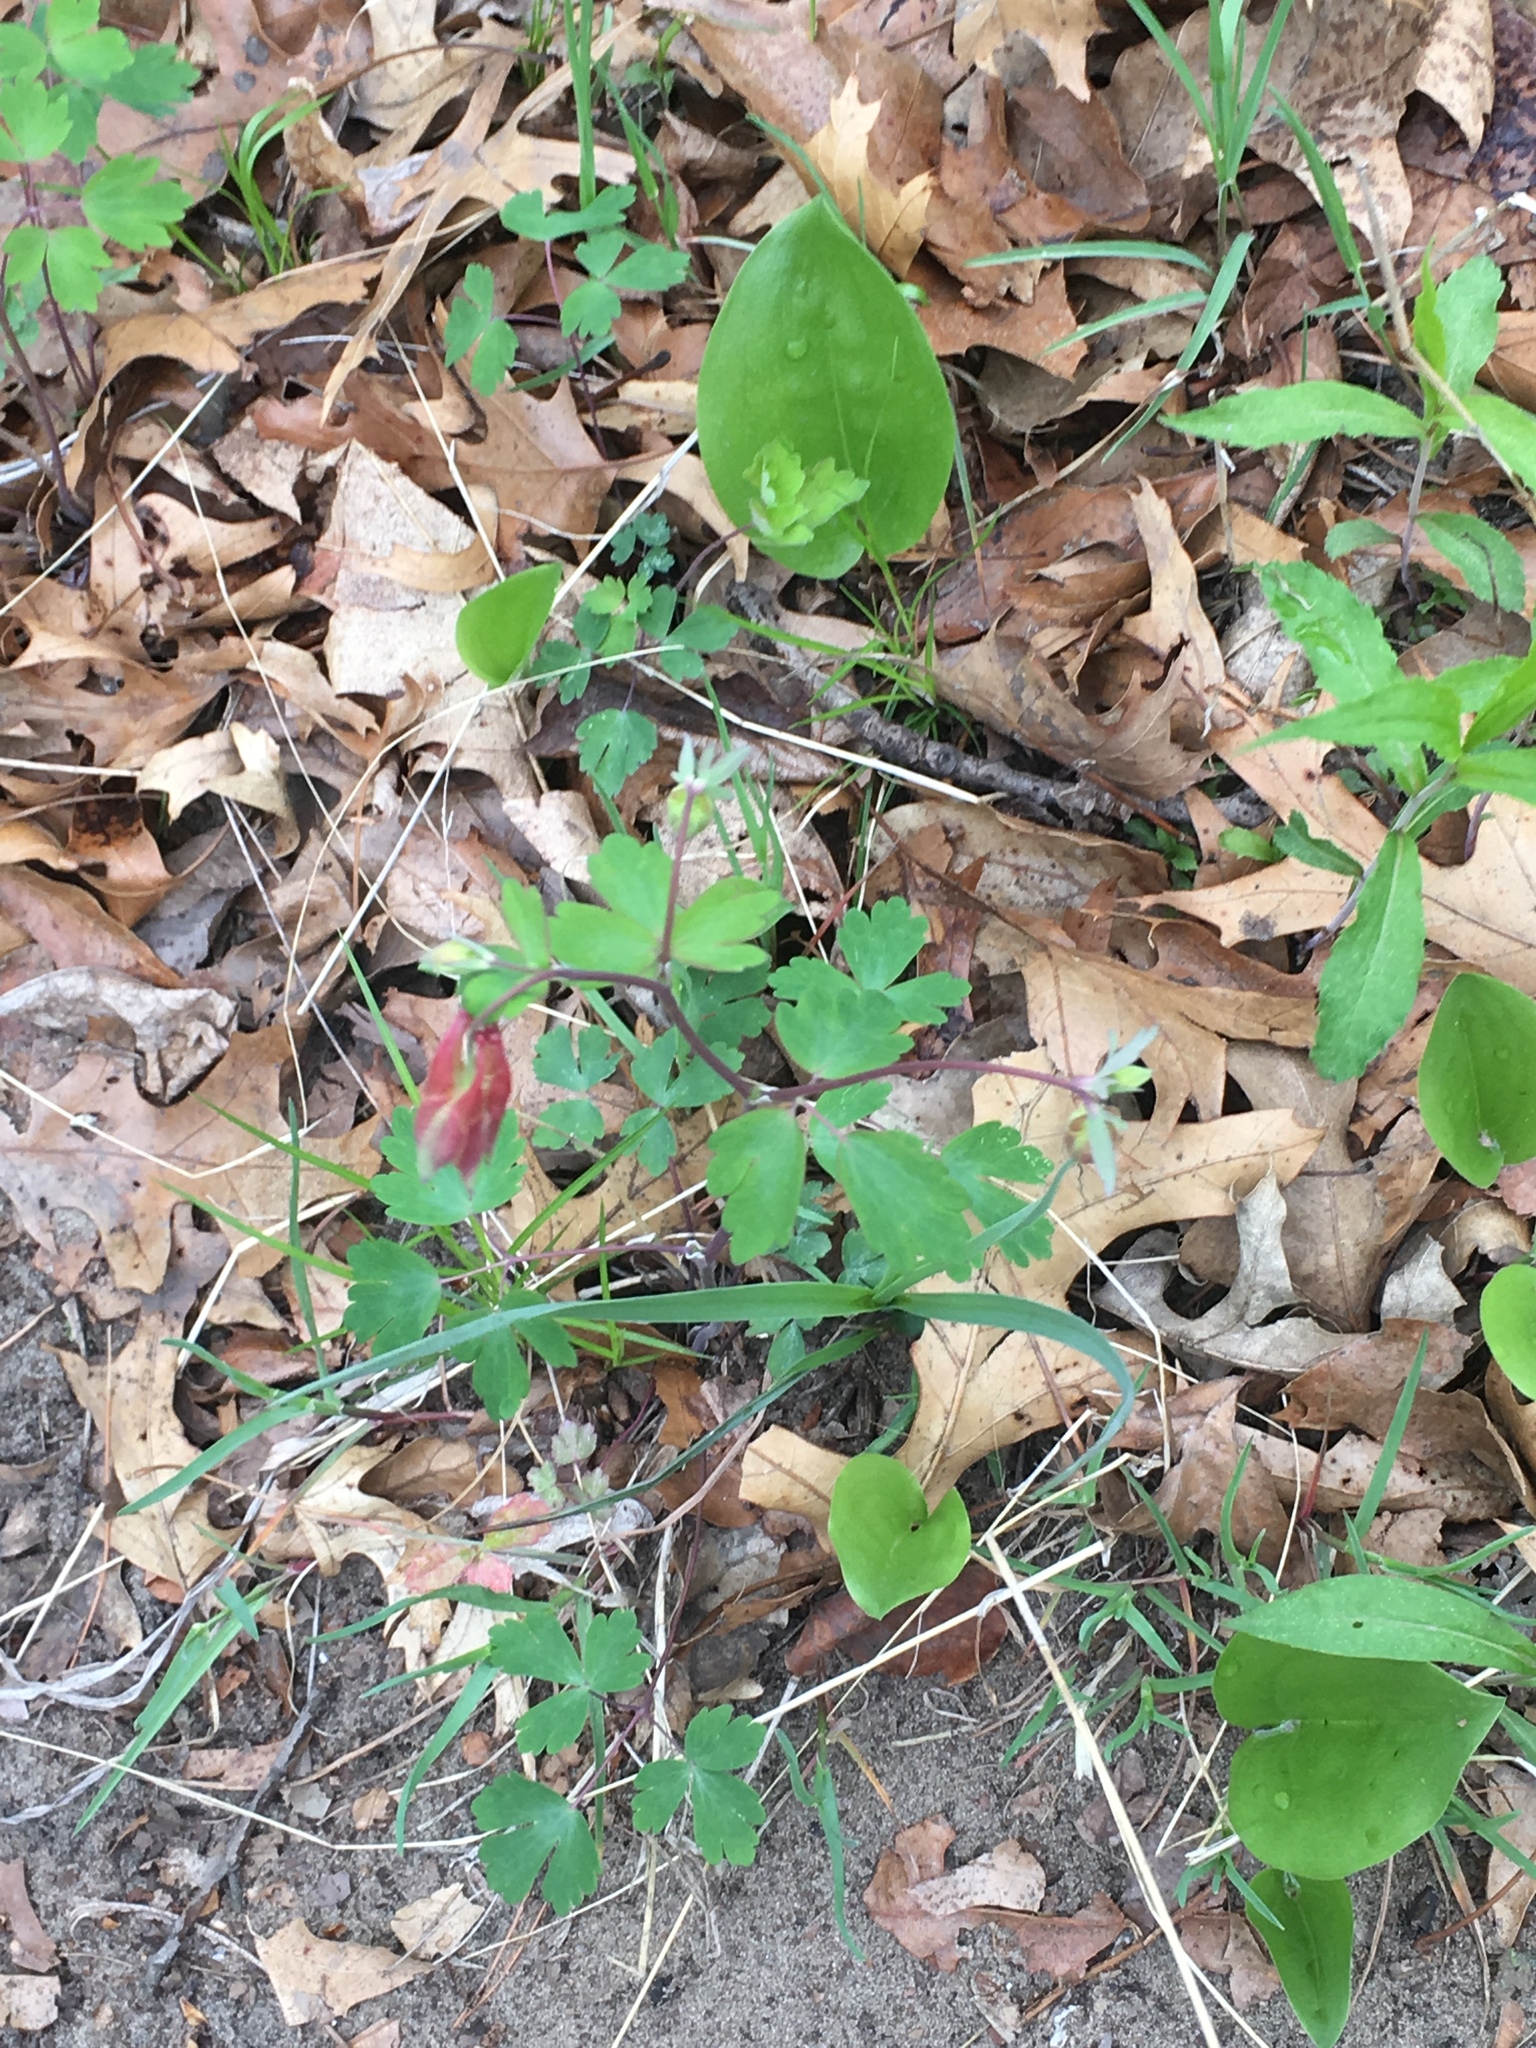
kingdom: Plantae
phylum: Tracheophyta
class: Magnoliopsida
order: Ranunculales
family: Ranunculaceae
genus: Aquilegia
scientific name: Aquilegia canadensis
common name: American columbine
